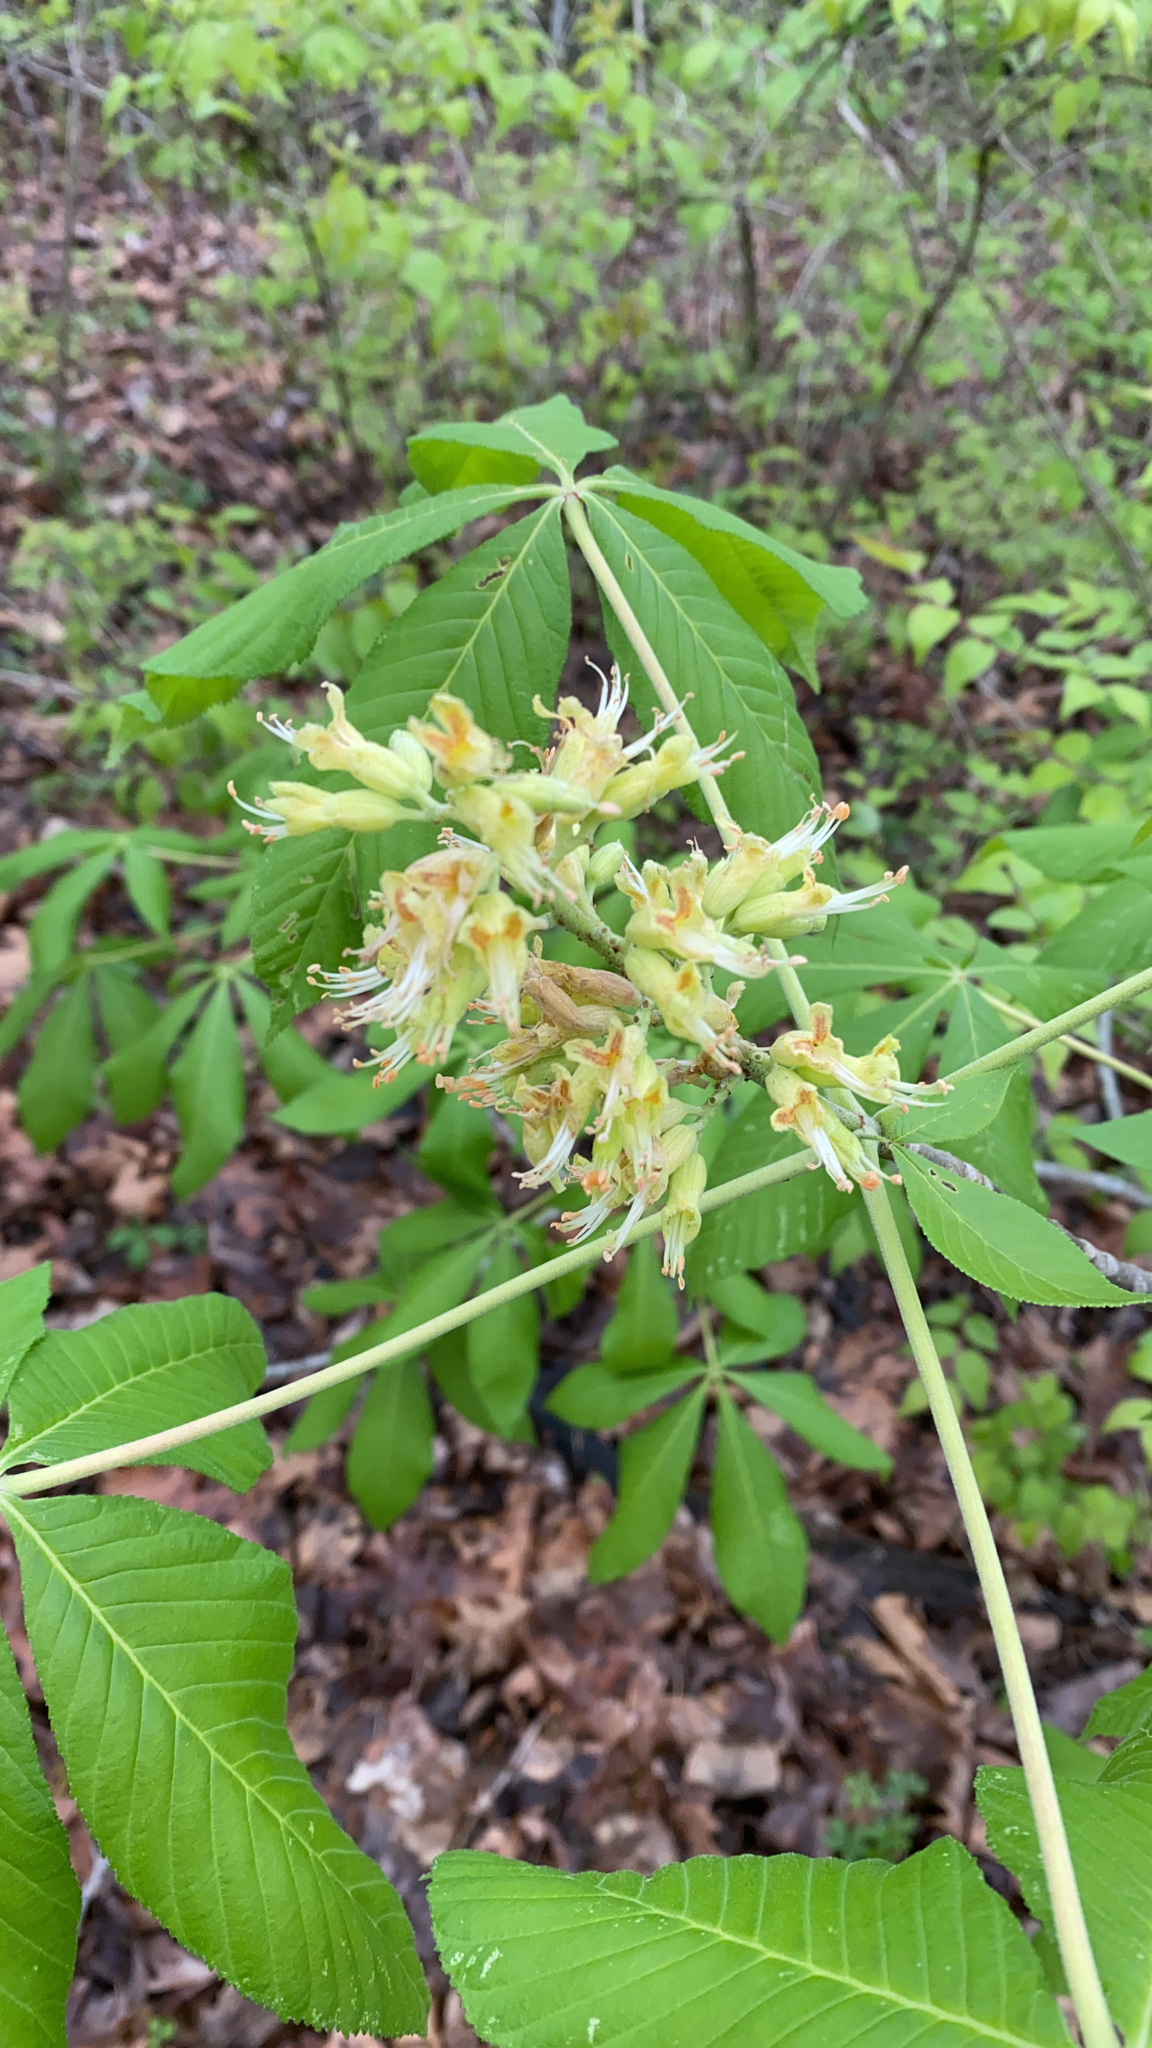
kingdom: Plantae
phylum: Tracheophyta
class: Magnoliopsida
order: Sapindales
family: Sapindaceae
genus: Aesculus
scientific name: Aesculus glabra
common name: Ohio buckeye
